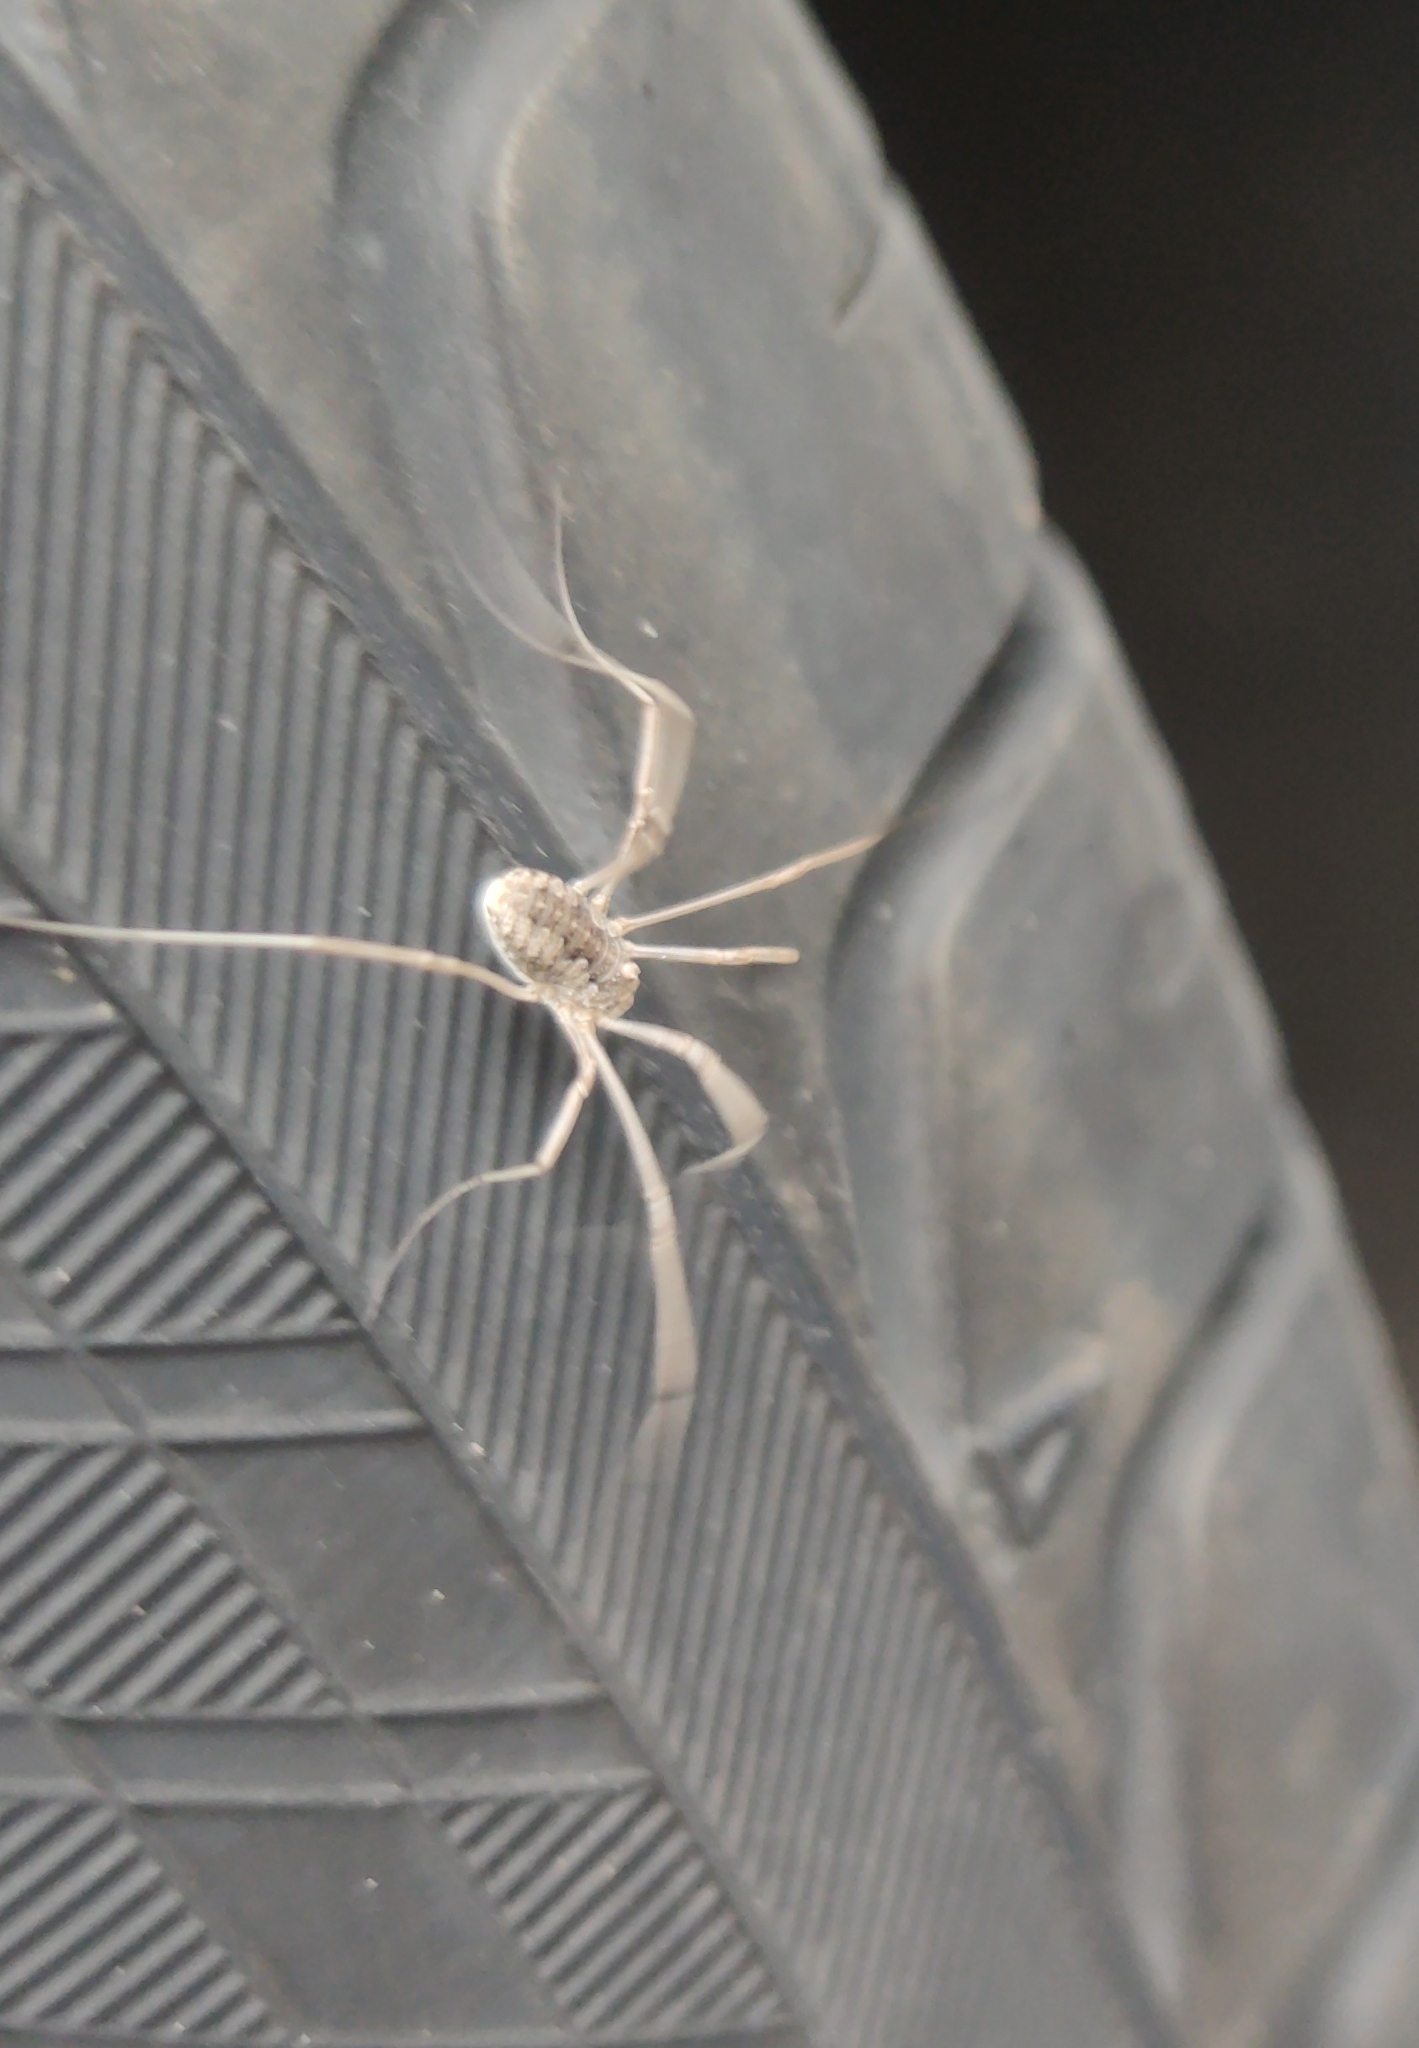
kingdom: Animalia
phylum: Arthropoda
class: Arachnida
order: Opiliones
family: Phalangiidae
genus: Phalangium
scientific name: Phalangium opilio
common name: Daddy longleg
